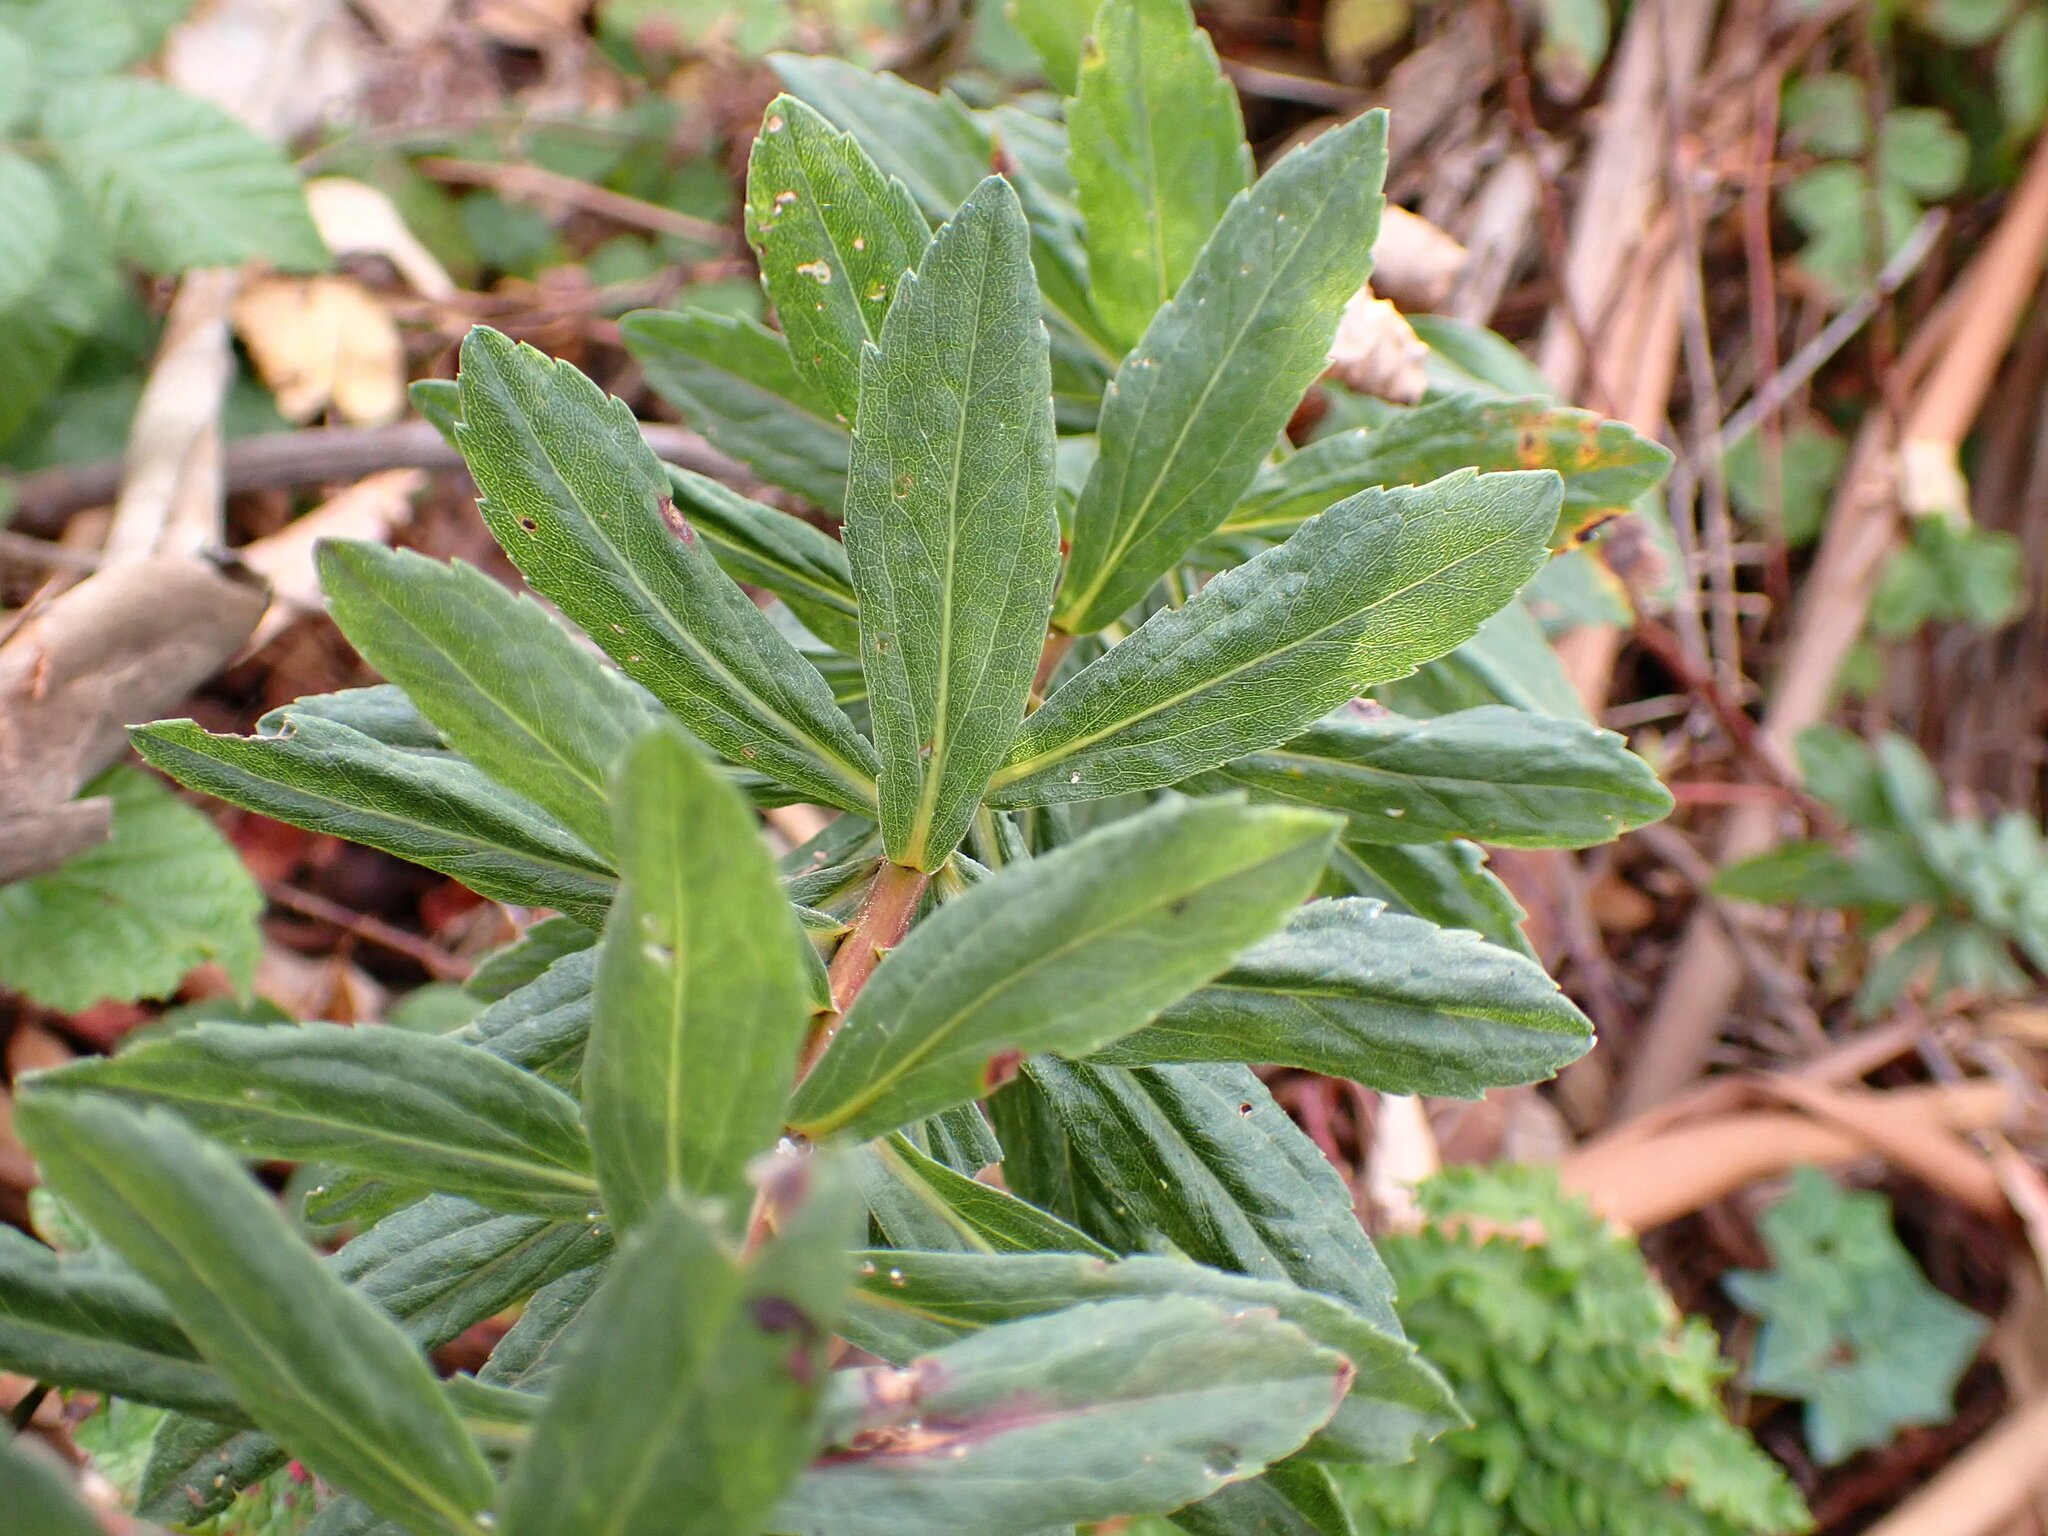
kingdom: Plantae
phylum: Tracheophyta
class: Magnoliopsida
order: Asterales
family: Asteraceae
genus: Solidago
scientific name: Solidago elongata
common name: Cascade canada goldenrod
